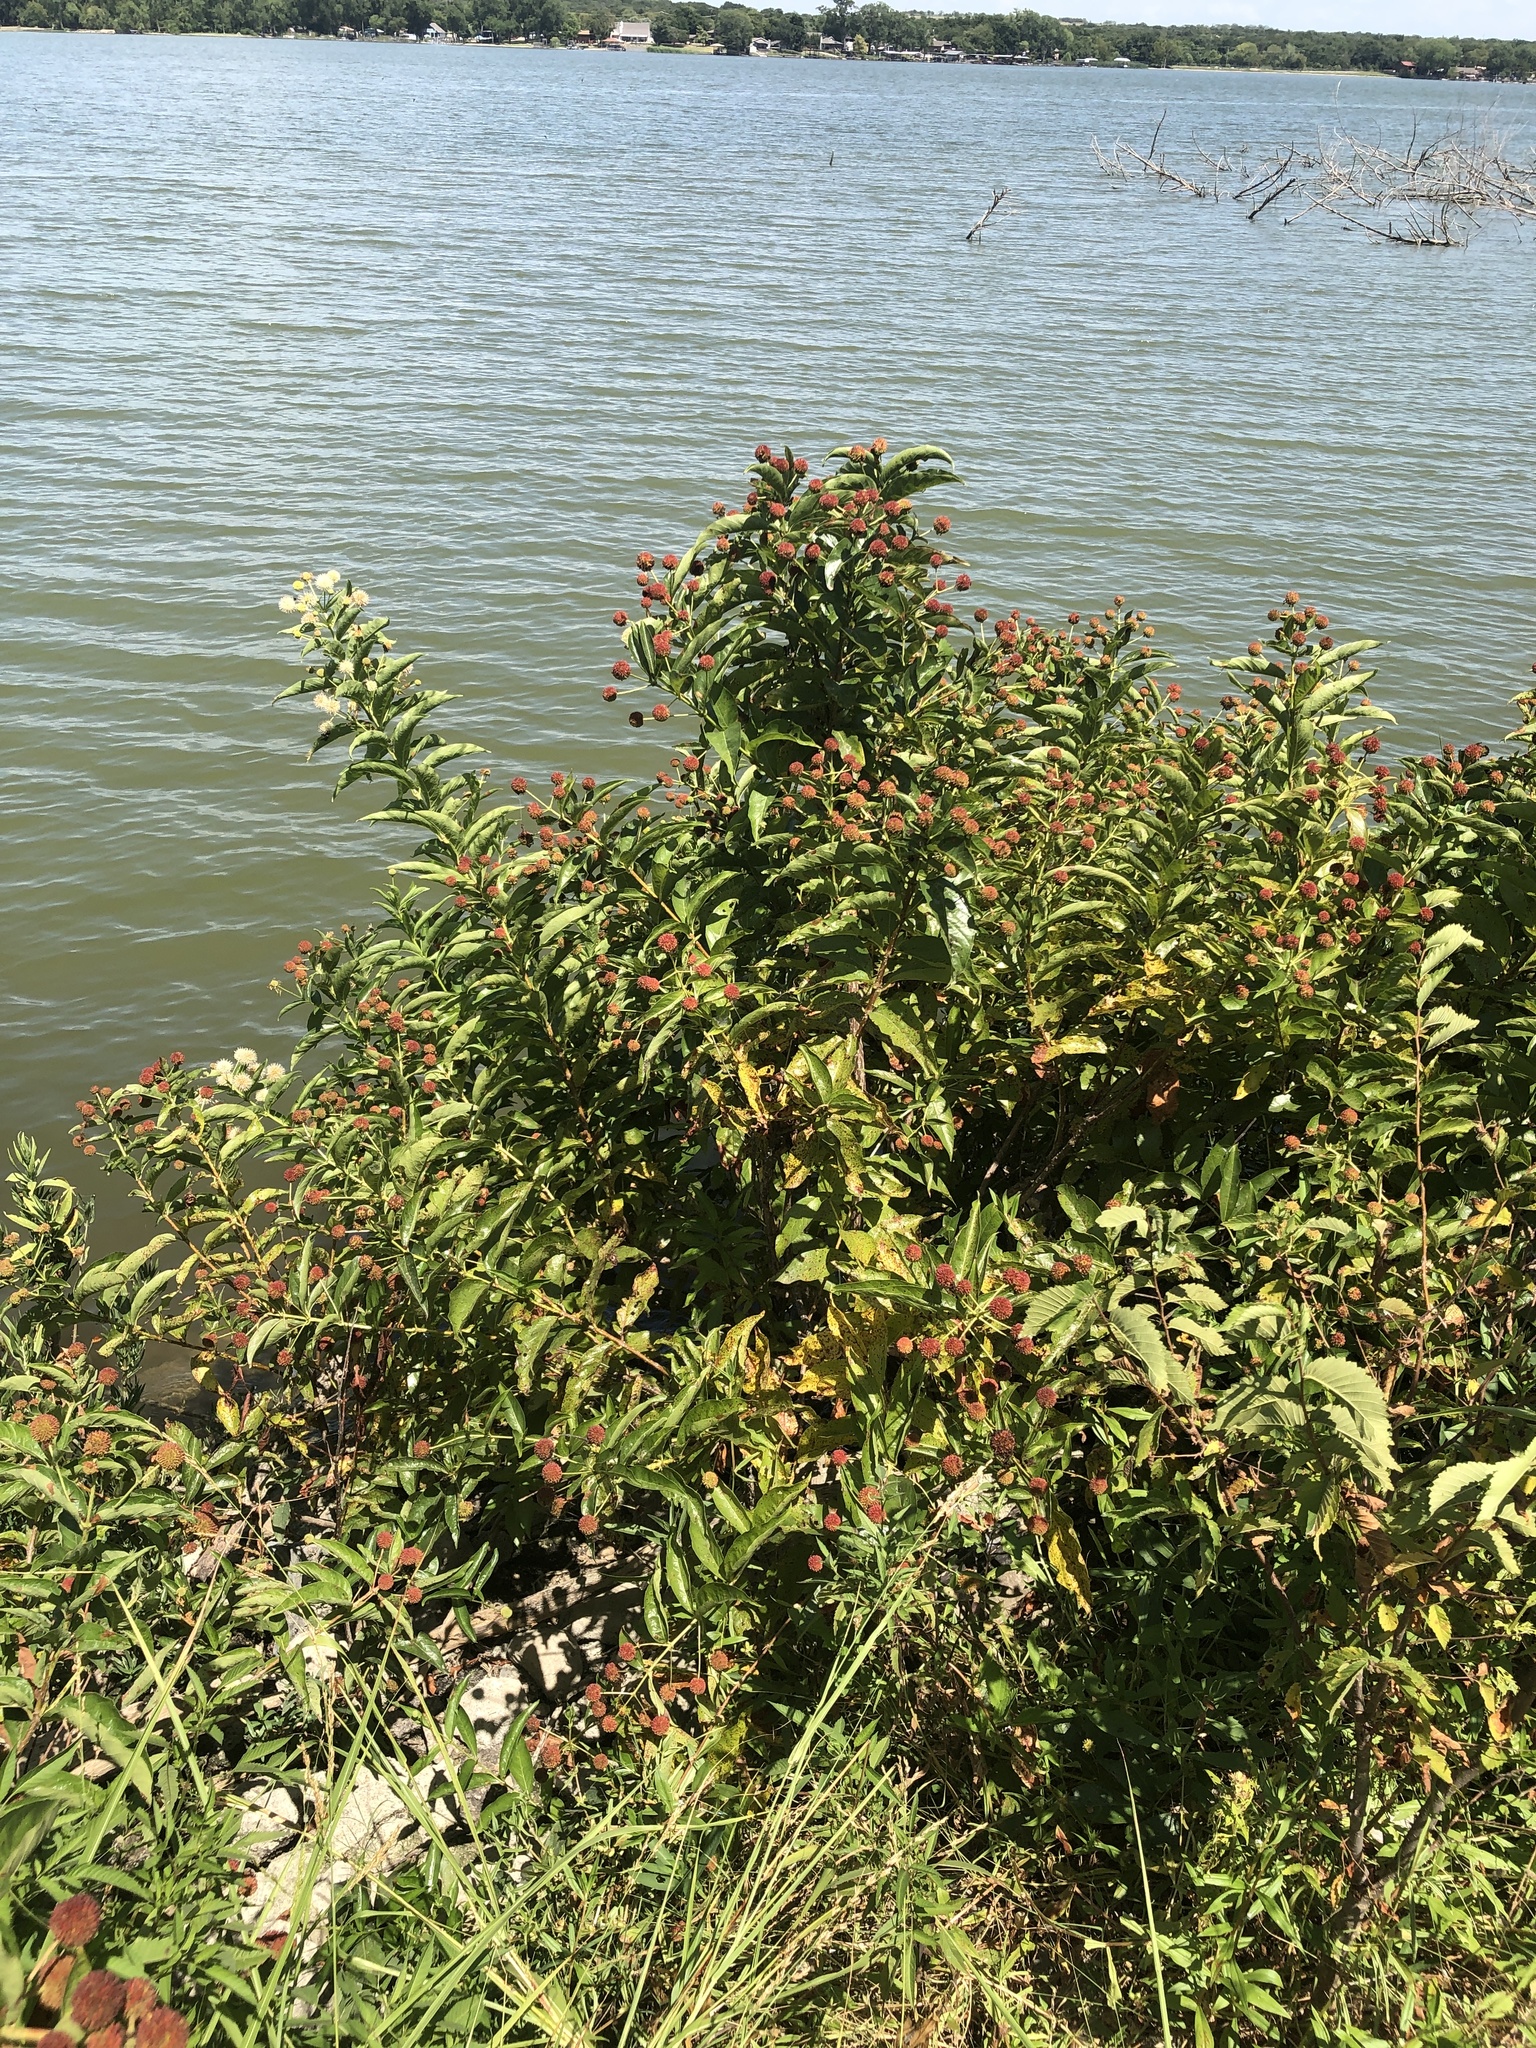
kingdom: Plantae
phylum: Tracheophyta
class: Magnoliopsida
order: Gentianales
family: Rubiaceae
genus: Cephalanthus
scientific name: Cephalanthus occidentalis
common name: Button-willow
